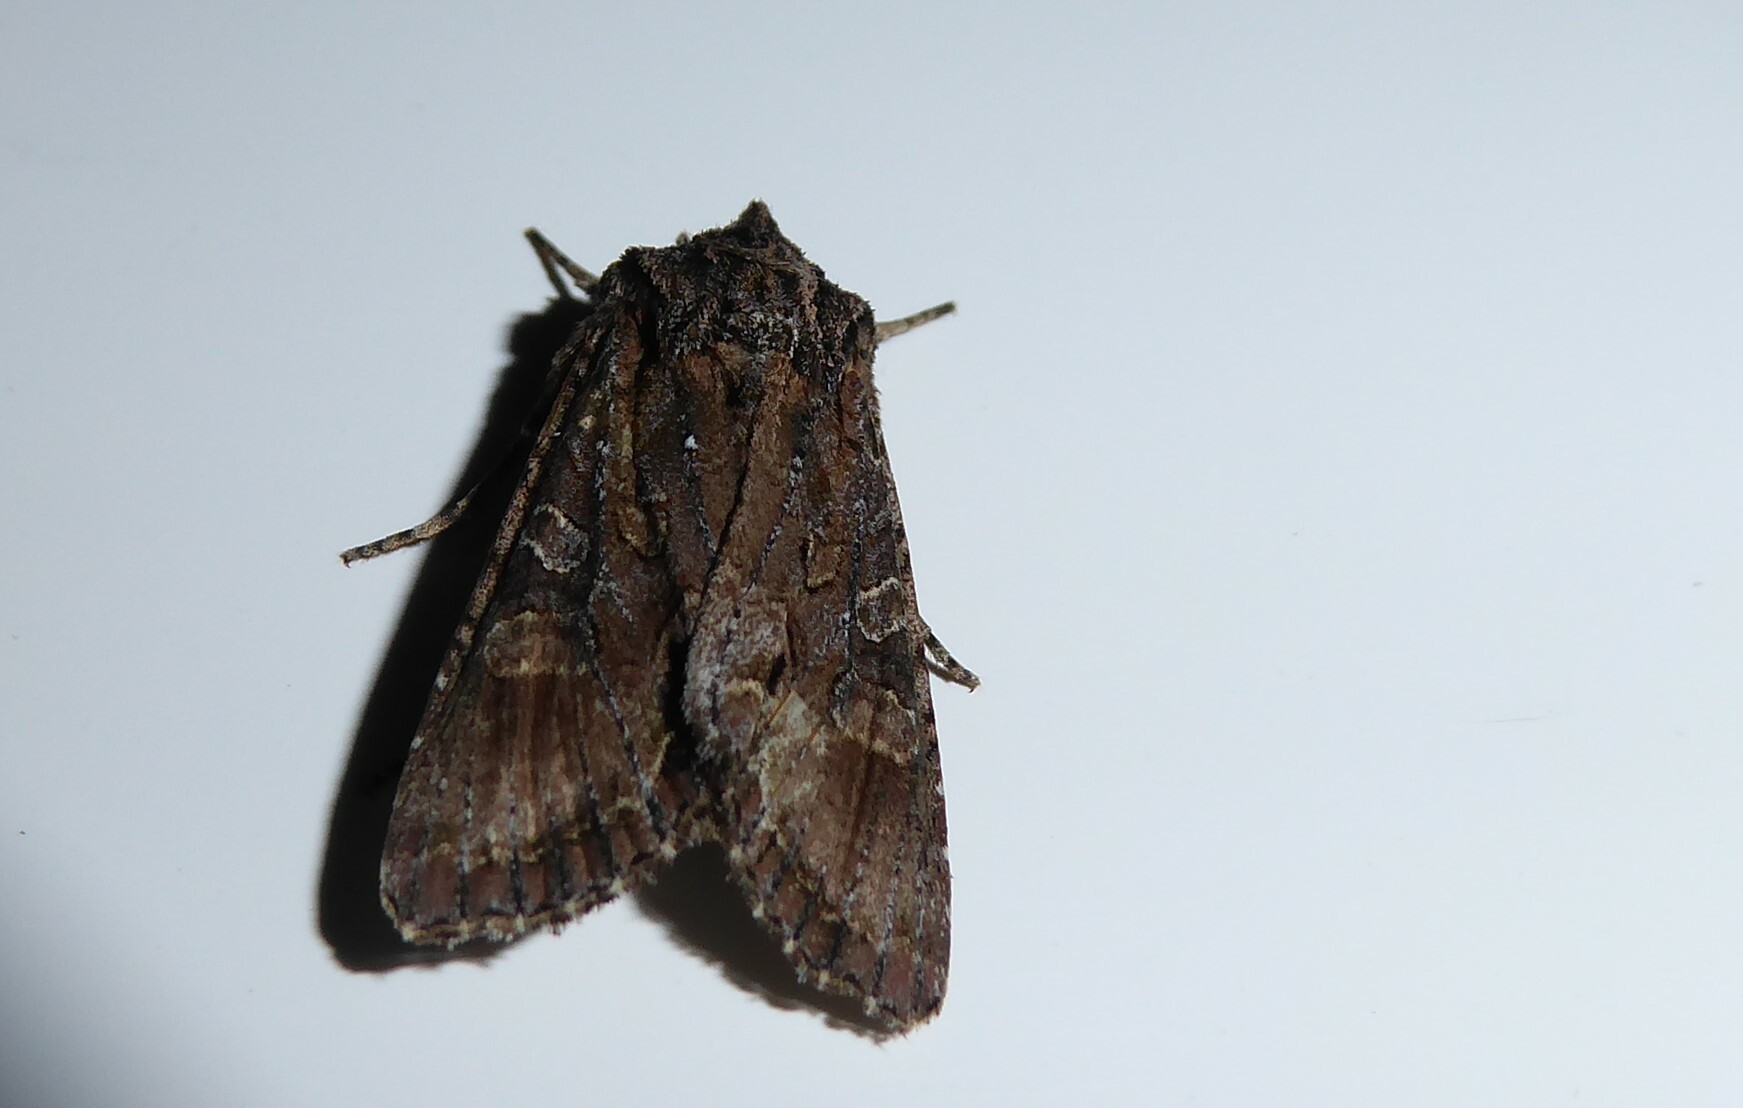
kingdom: Animalia
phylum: Arthropoda
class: Insecta
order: Lepidoptera
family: Noctuidae
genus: Ichneutica
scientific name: Ichneutica mutans
